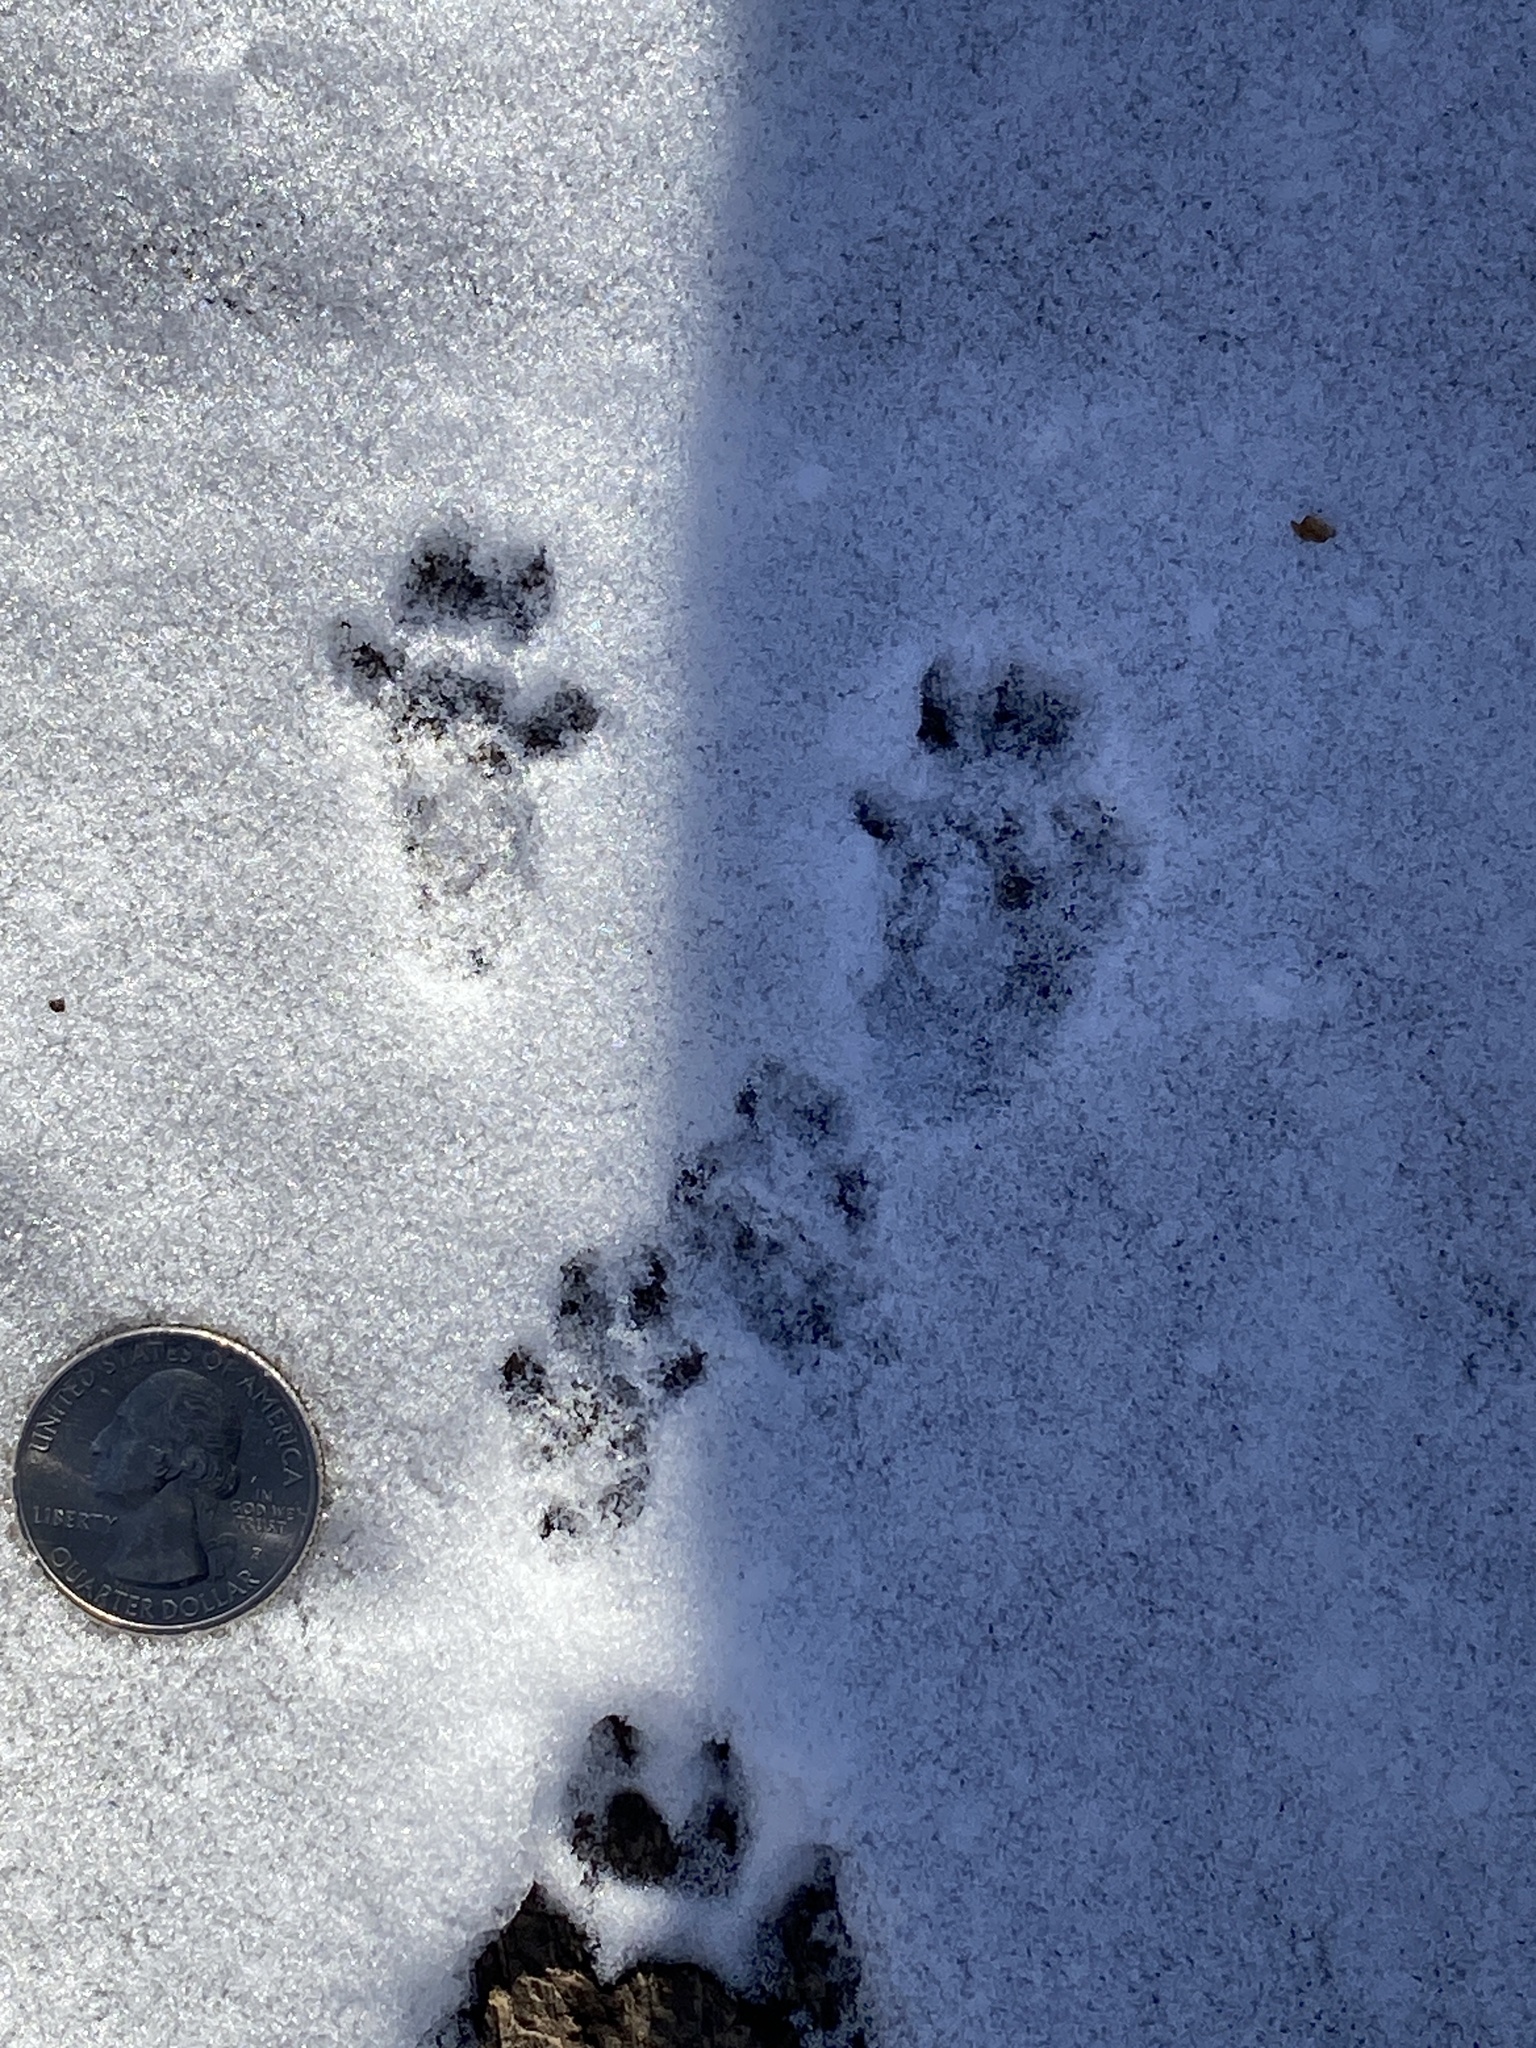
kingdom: Animalia
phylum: Chordata
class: Mammalia
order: Rodentia
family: Sciuridae
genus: Sciurus
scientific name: Sciurus carolinensis
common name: Eastern gray squirrel
